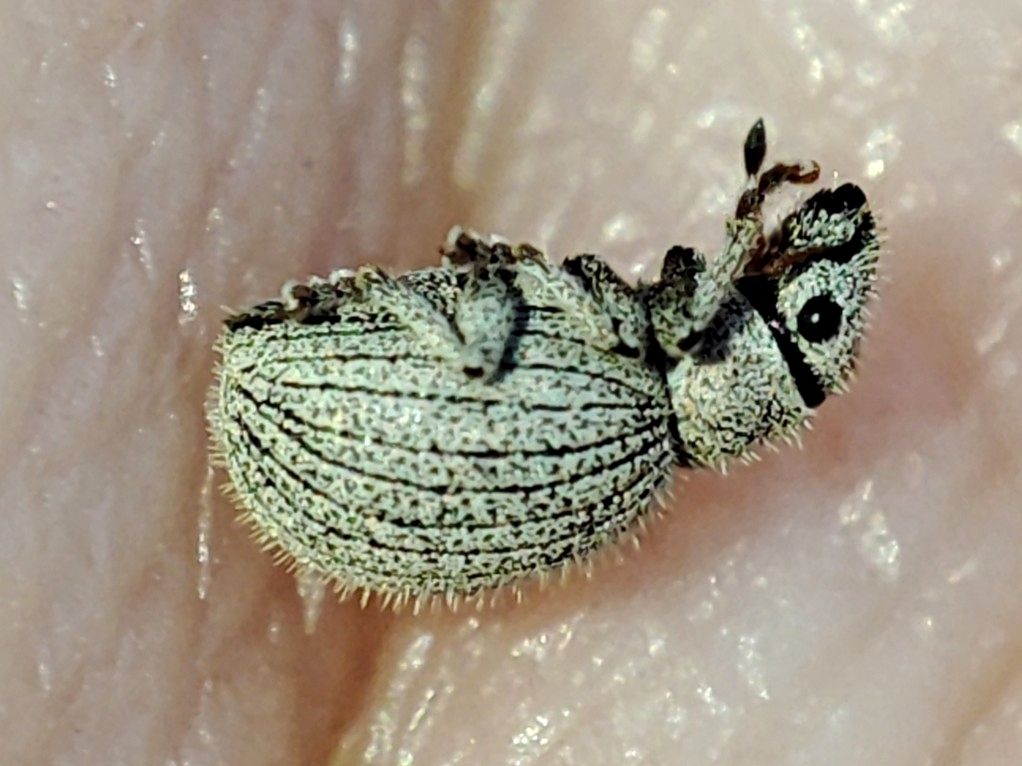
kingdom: Animalia
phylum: Arthropoda
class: Insecta
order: Coleoptera
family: Curculionidae
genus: Foucartia
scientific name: Foucartia squamulata
